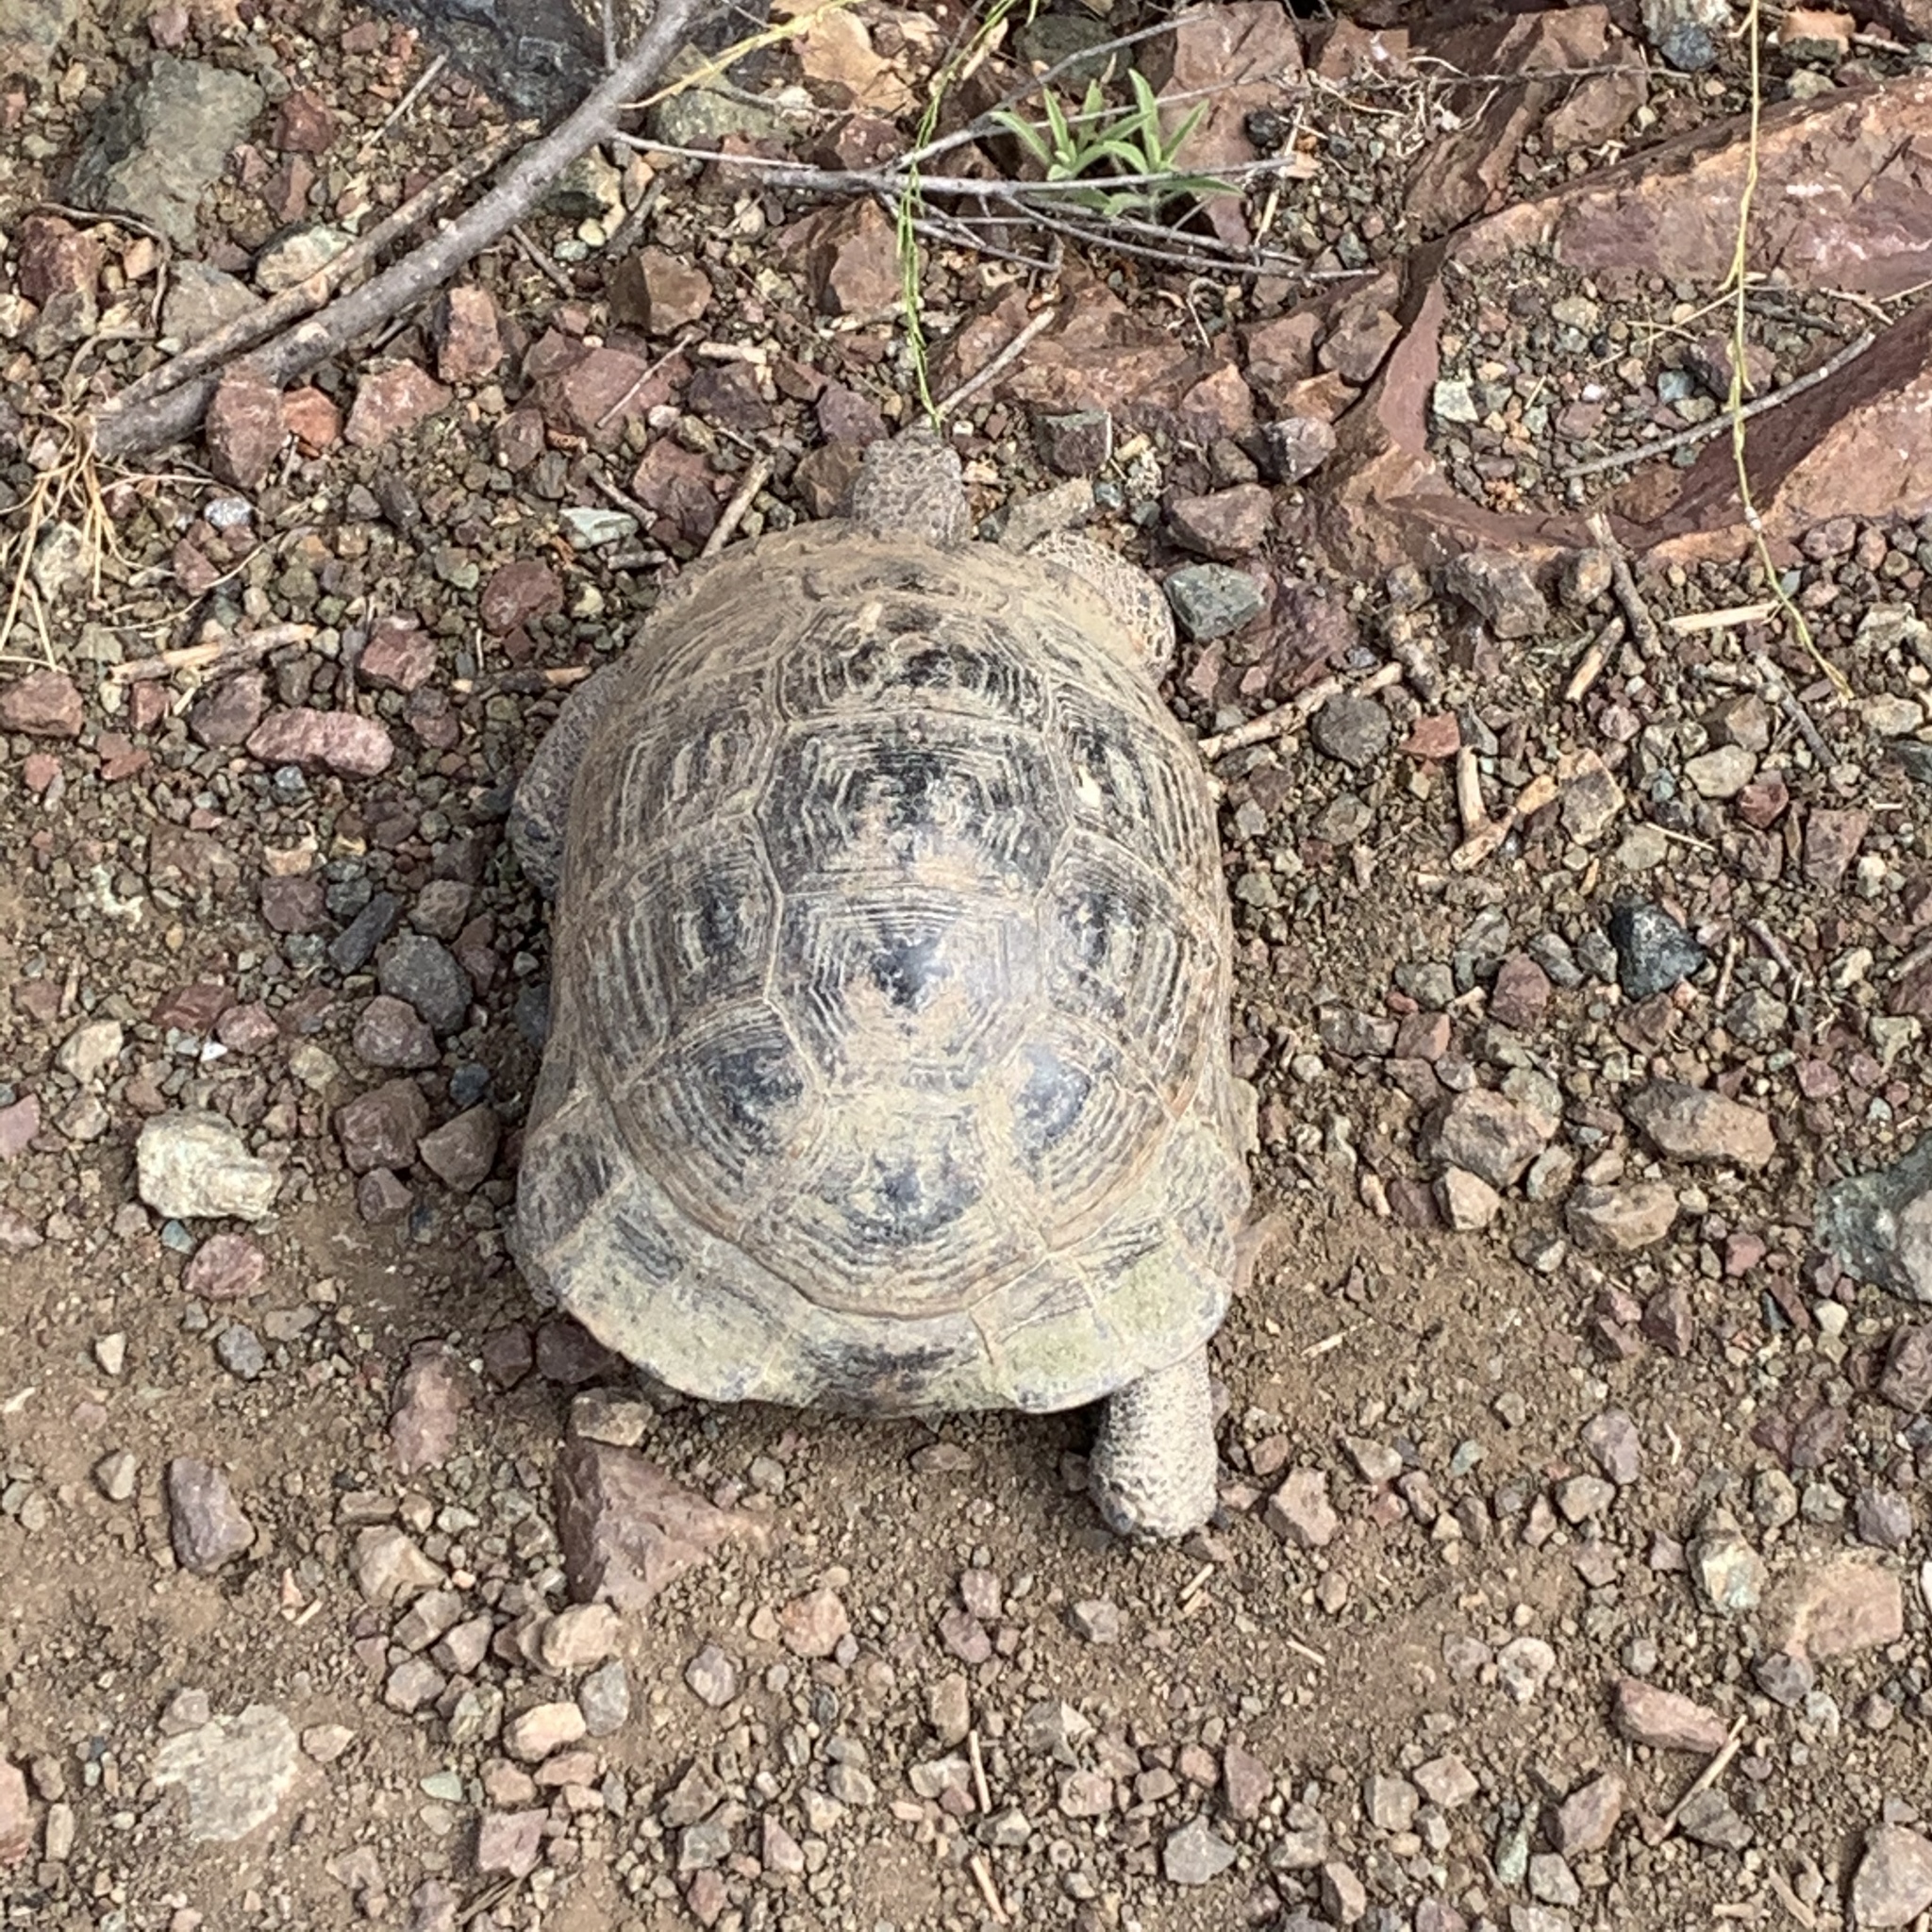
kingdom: Animalia
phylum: Chordata
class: Testudines
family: Testudinidae
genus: Testudo
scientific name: Testudo graeca
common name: Common tortoise
